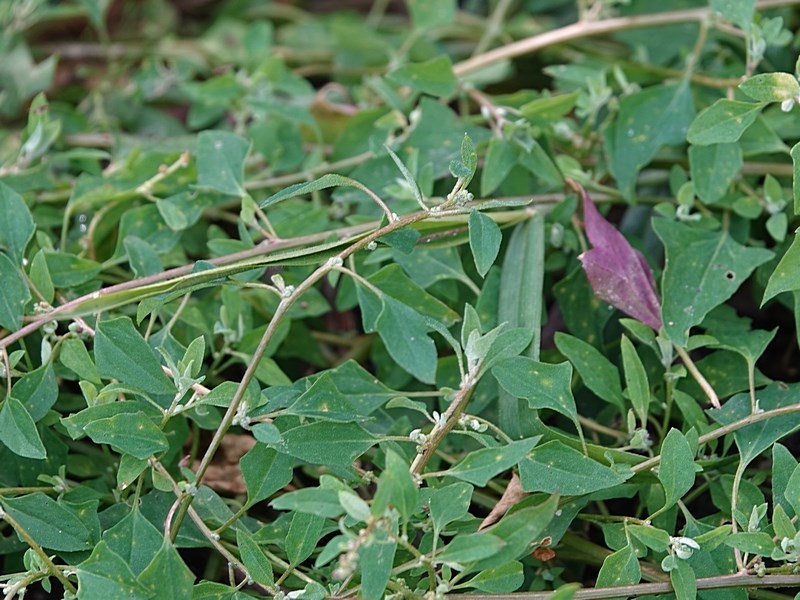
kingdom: Plantae
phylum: Tracheophyta
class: Magnoliopsida
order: Caryophyllales
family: Amaranthaceae
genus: Chenopodium
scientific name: Chenopodium trigonon
